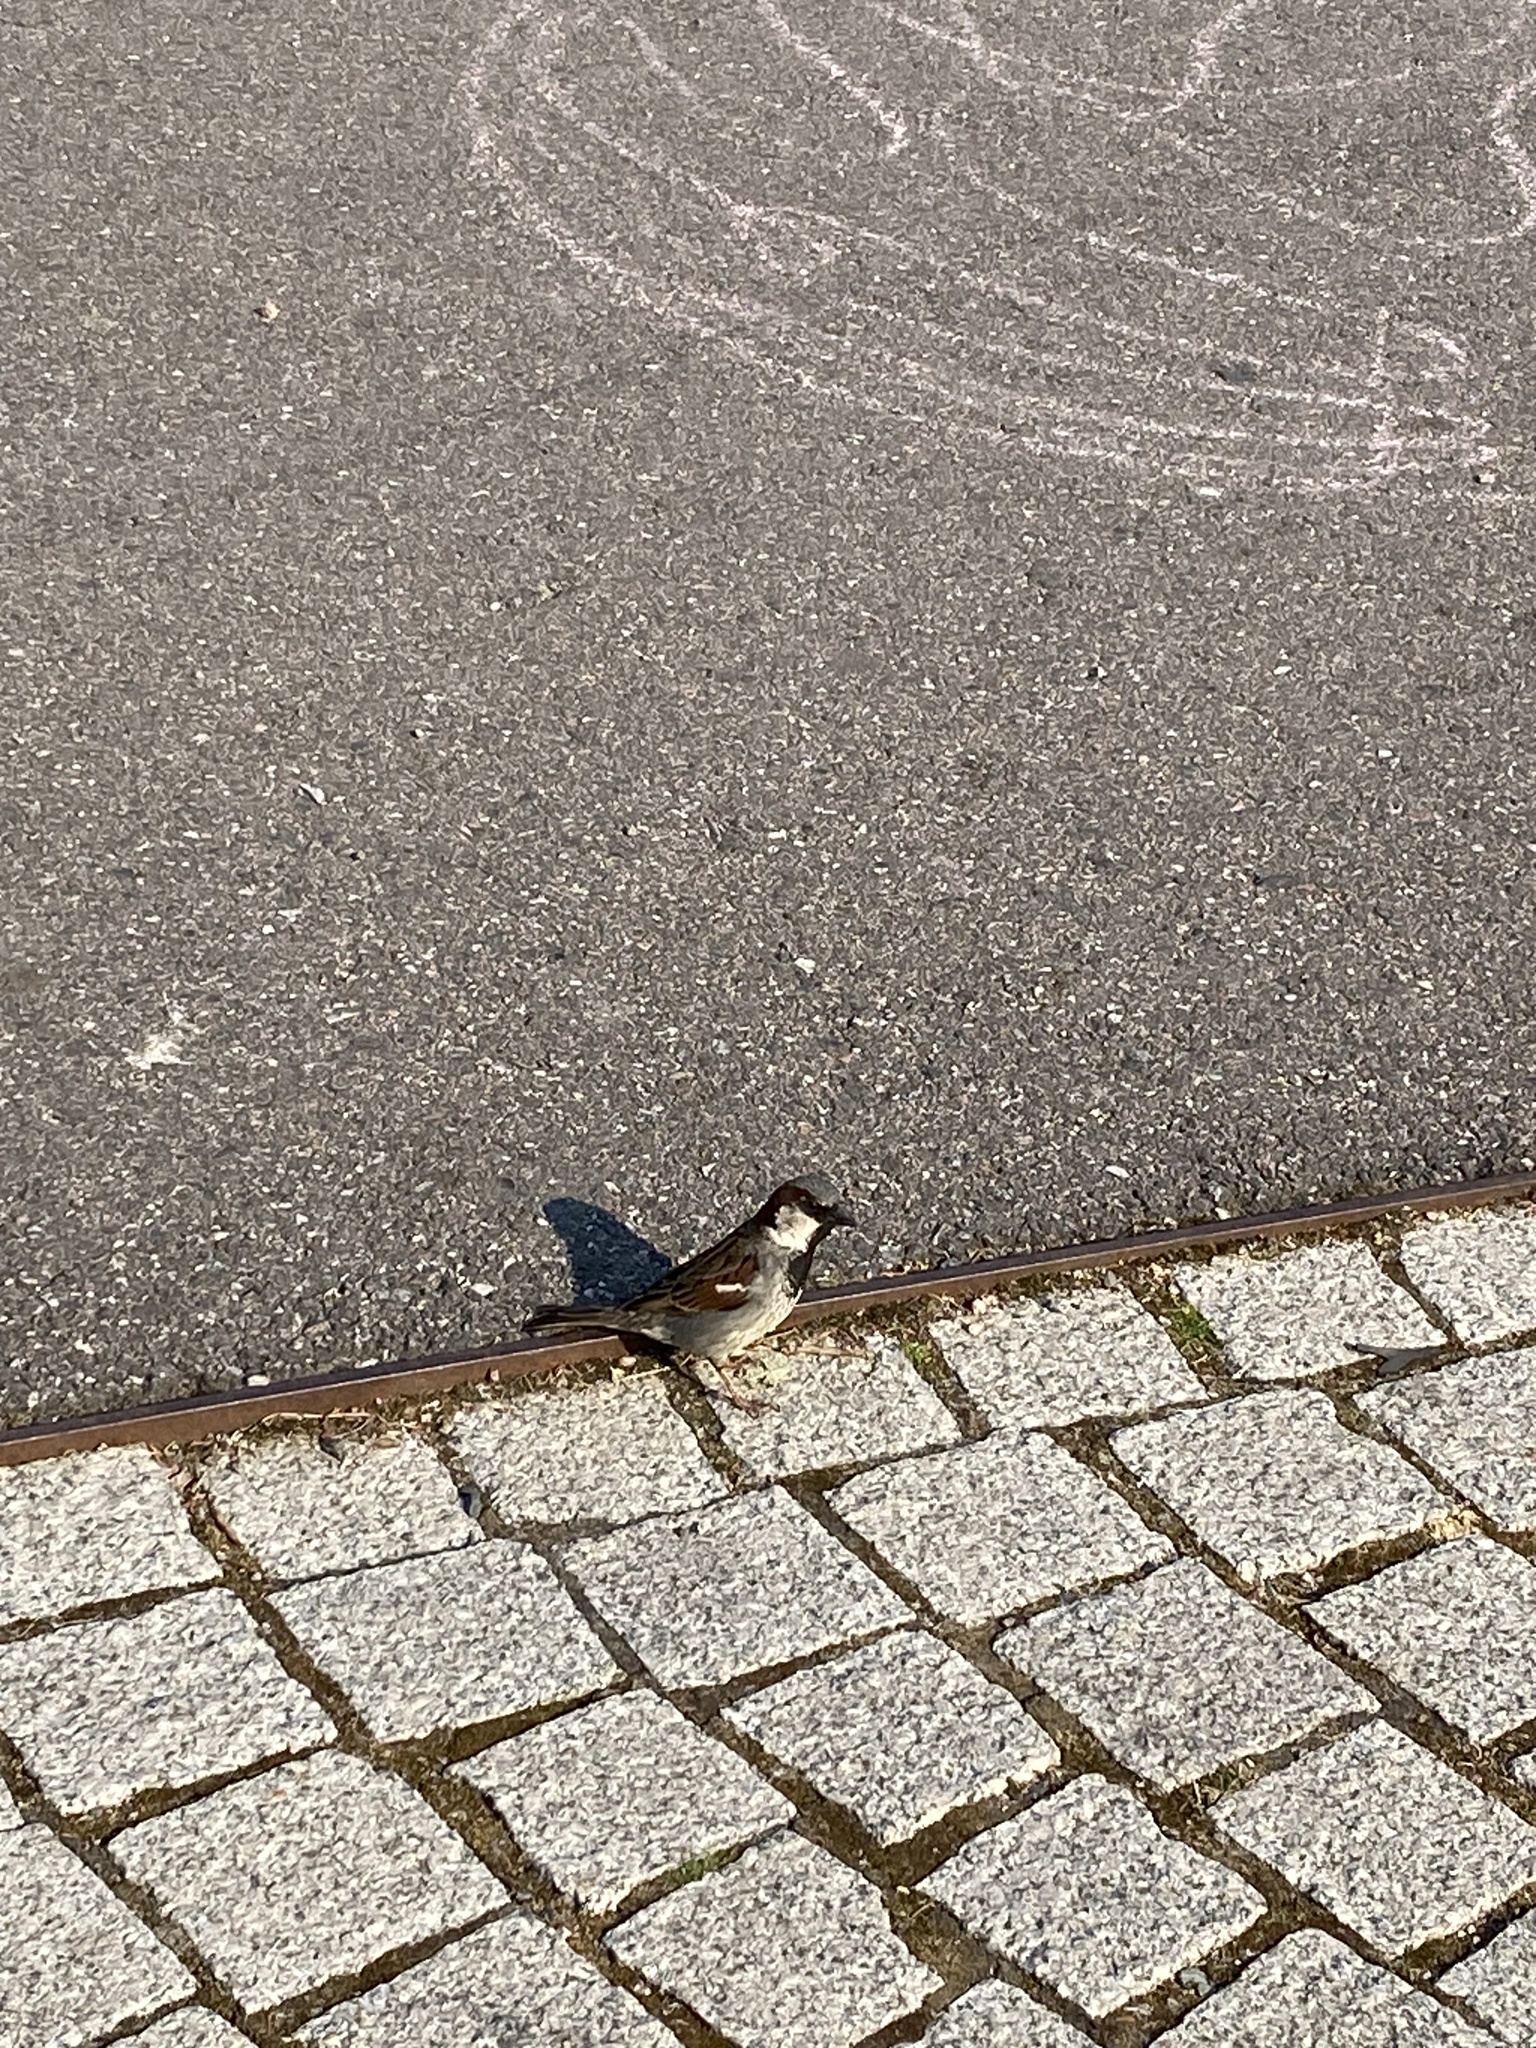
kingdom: Animalia
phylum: Chordata
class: Aves
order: Passeriformes
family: Passeridae
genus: Passer
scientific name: Passer domesticus
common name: House sparrow
